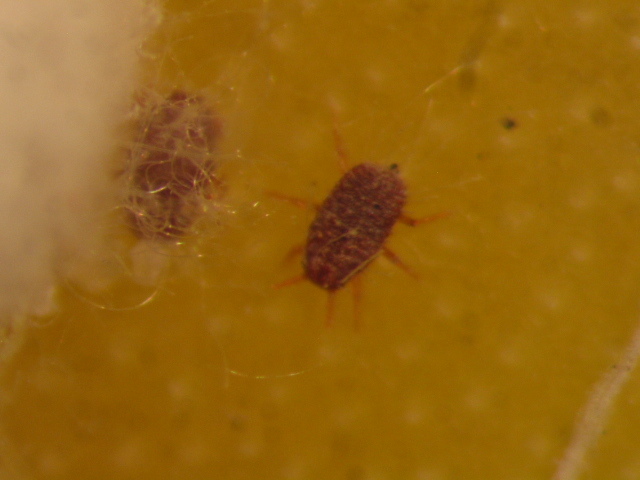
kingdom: Animalia
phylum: Arthropoda
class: Insecta
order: Hemiptera
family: Dactylopiidae
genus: Dactylopius
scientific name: Dactylopius opuntiae
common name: Opuntia cochineal scale
